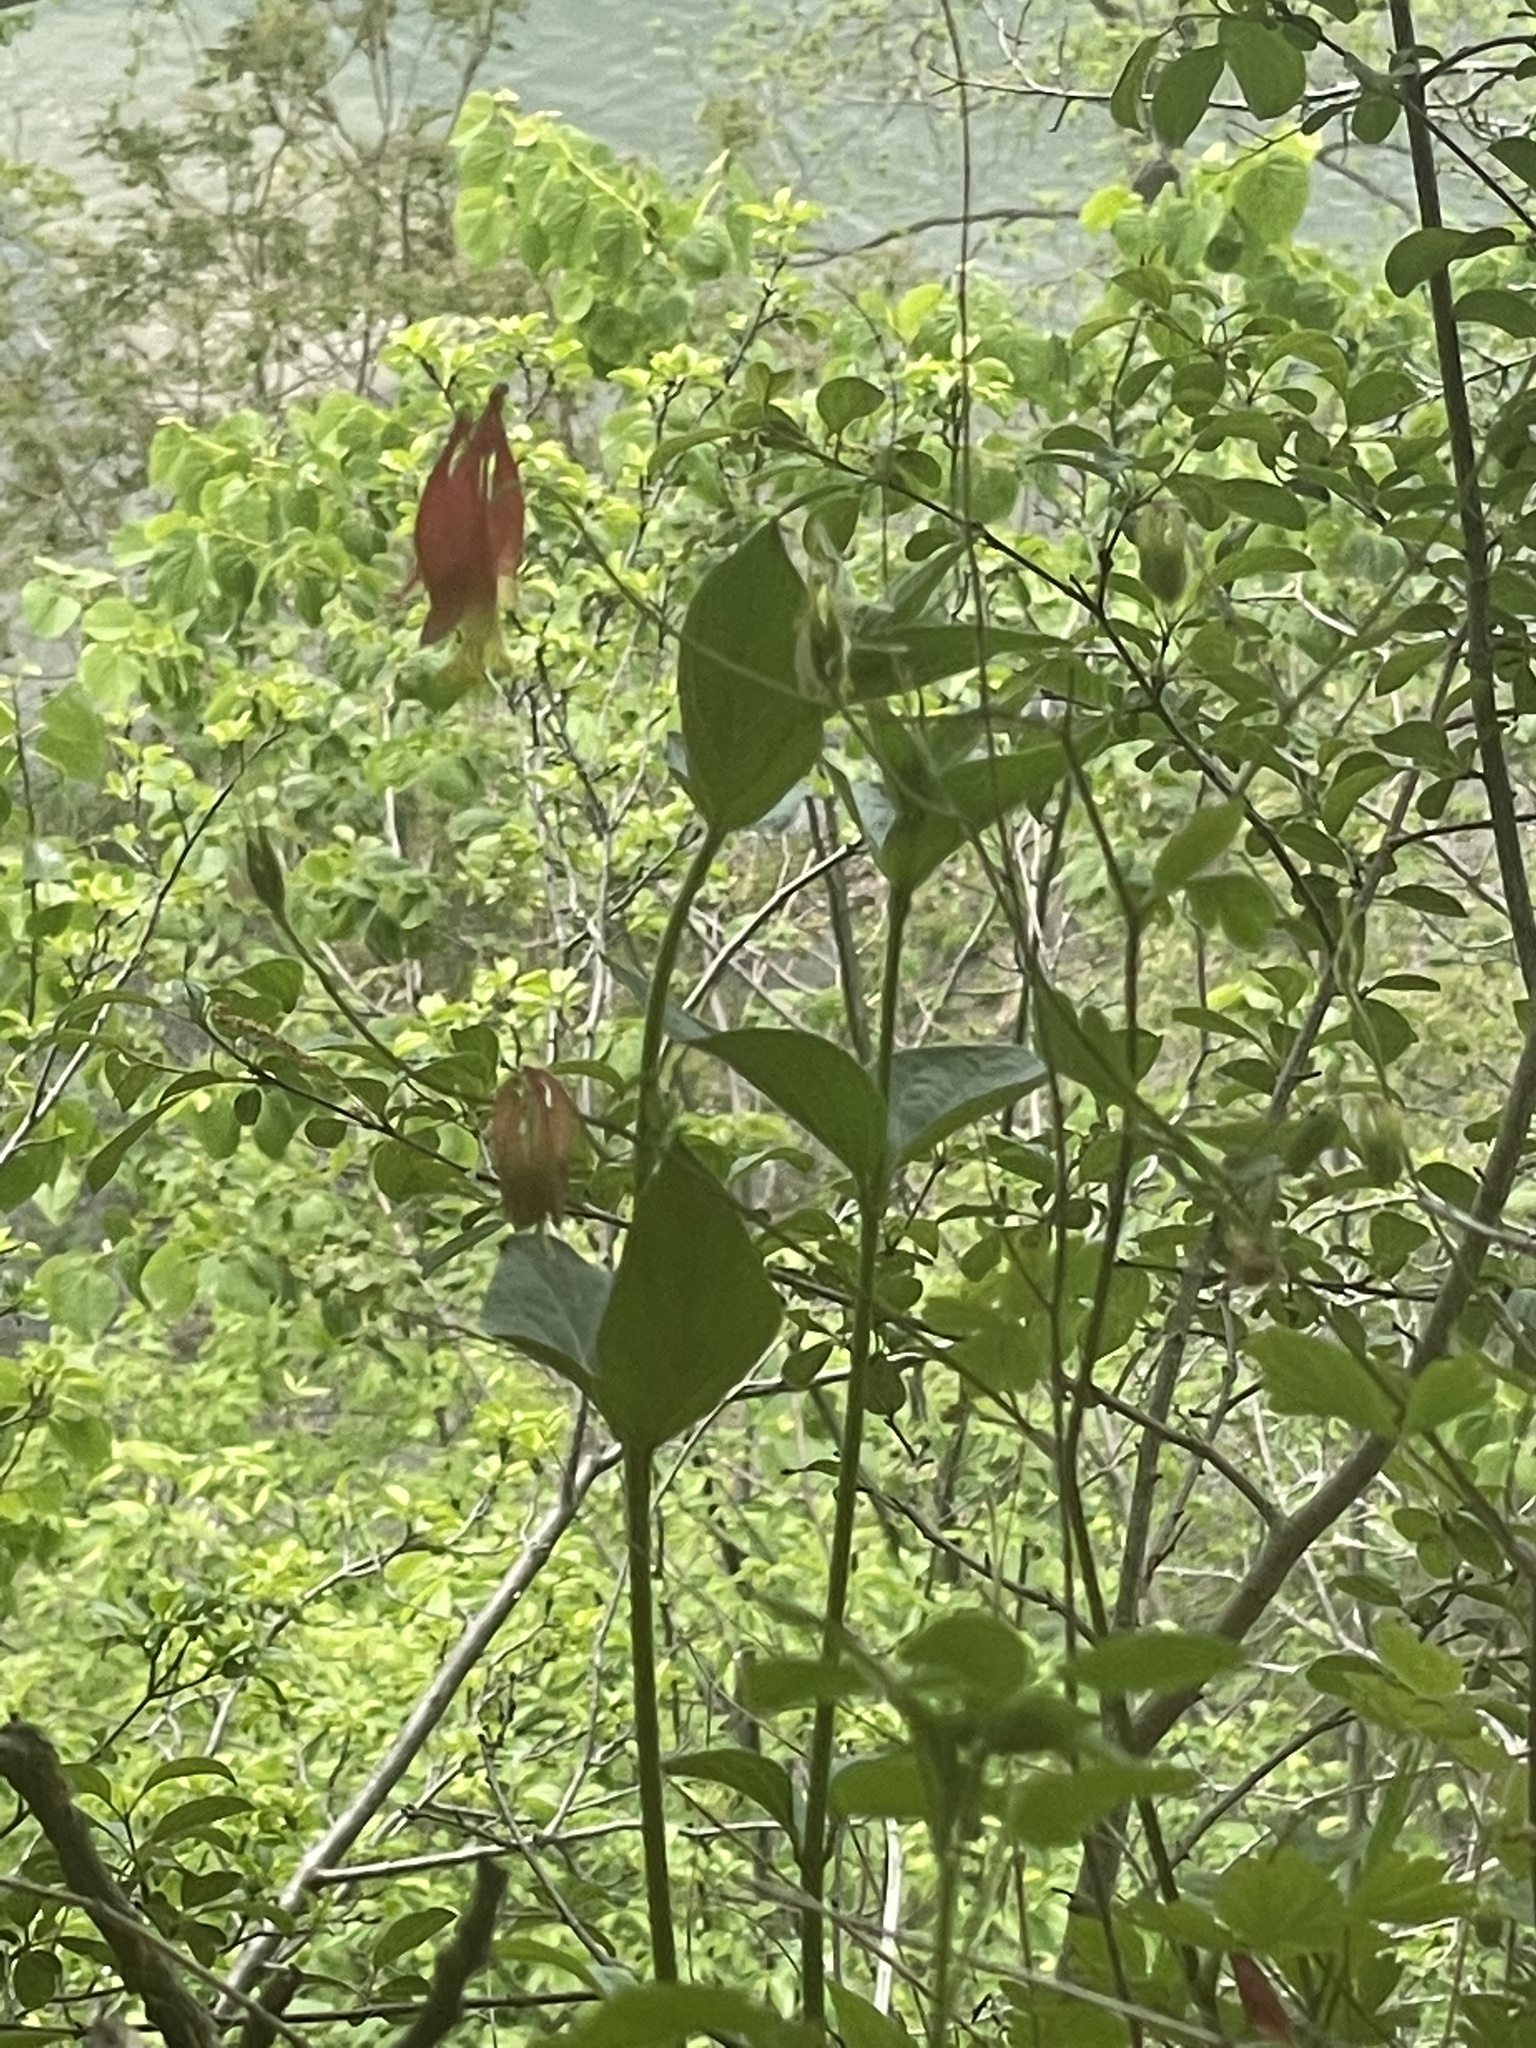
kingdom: Plantae
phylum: Tracheophyta
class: Magnoliopsida
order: Ranunculales
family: Ranunculaceae
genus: Aquilegia
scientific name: Aquilegia canadensis
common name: American columbine
